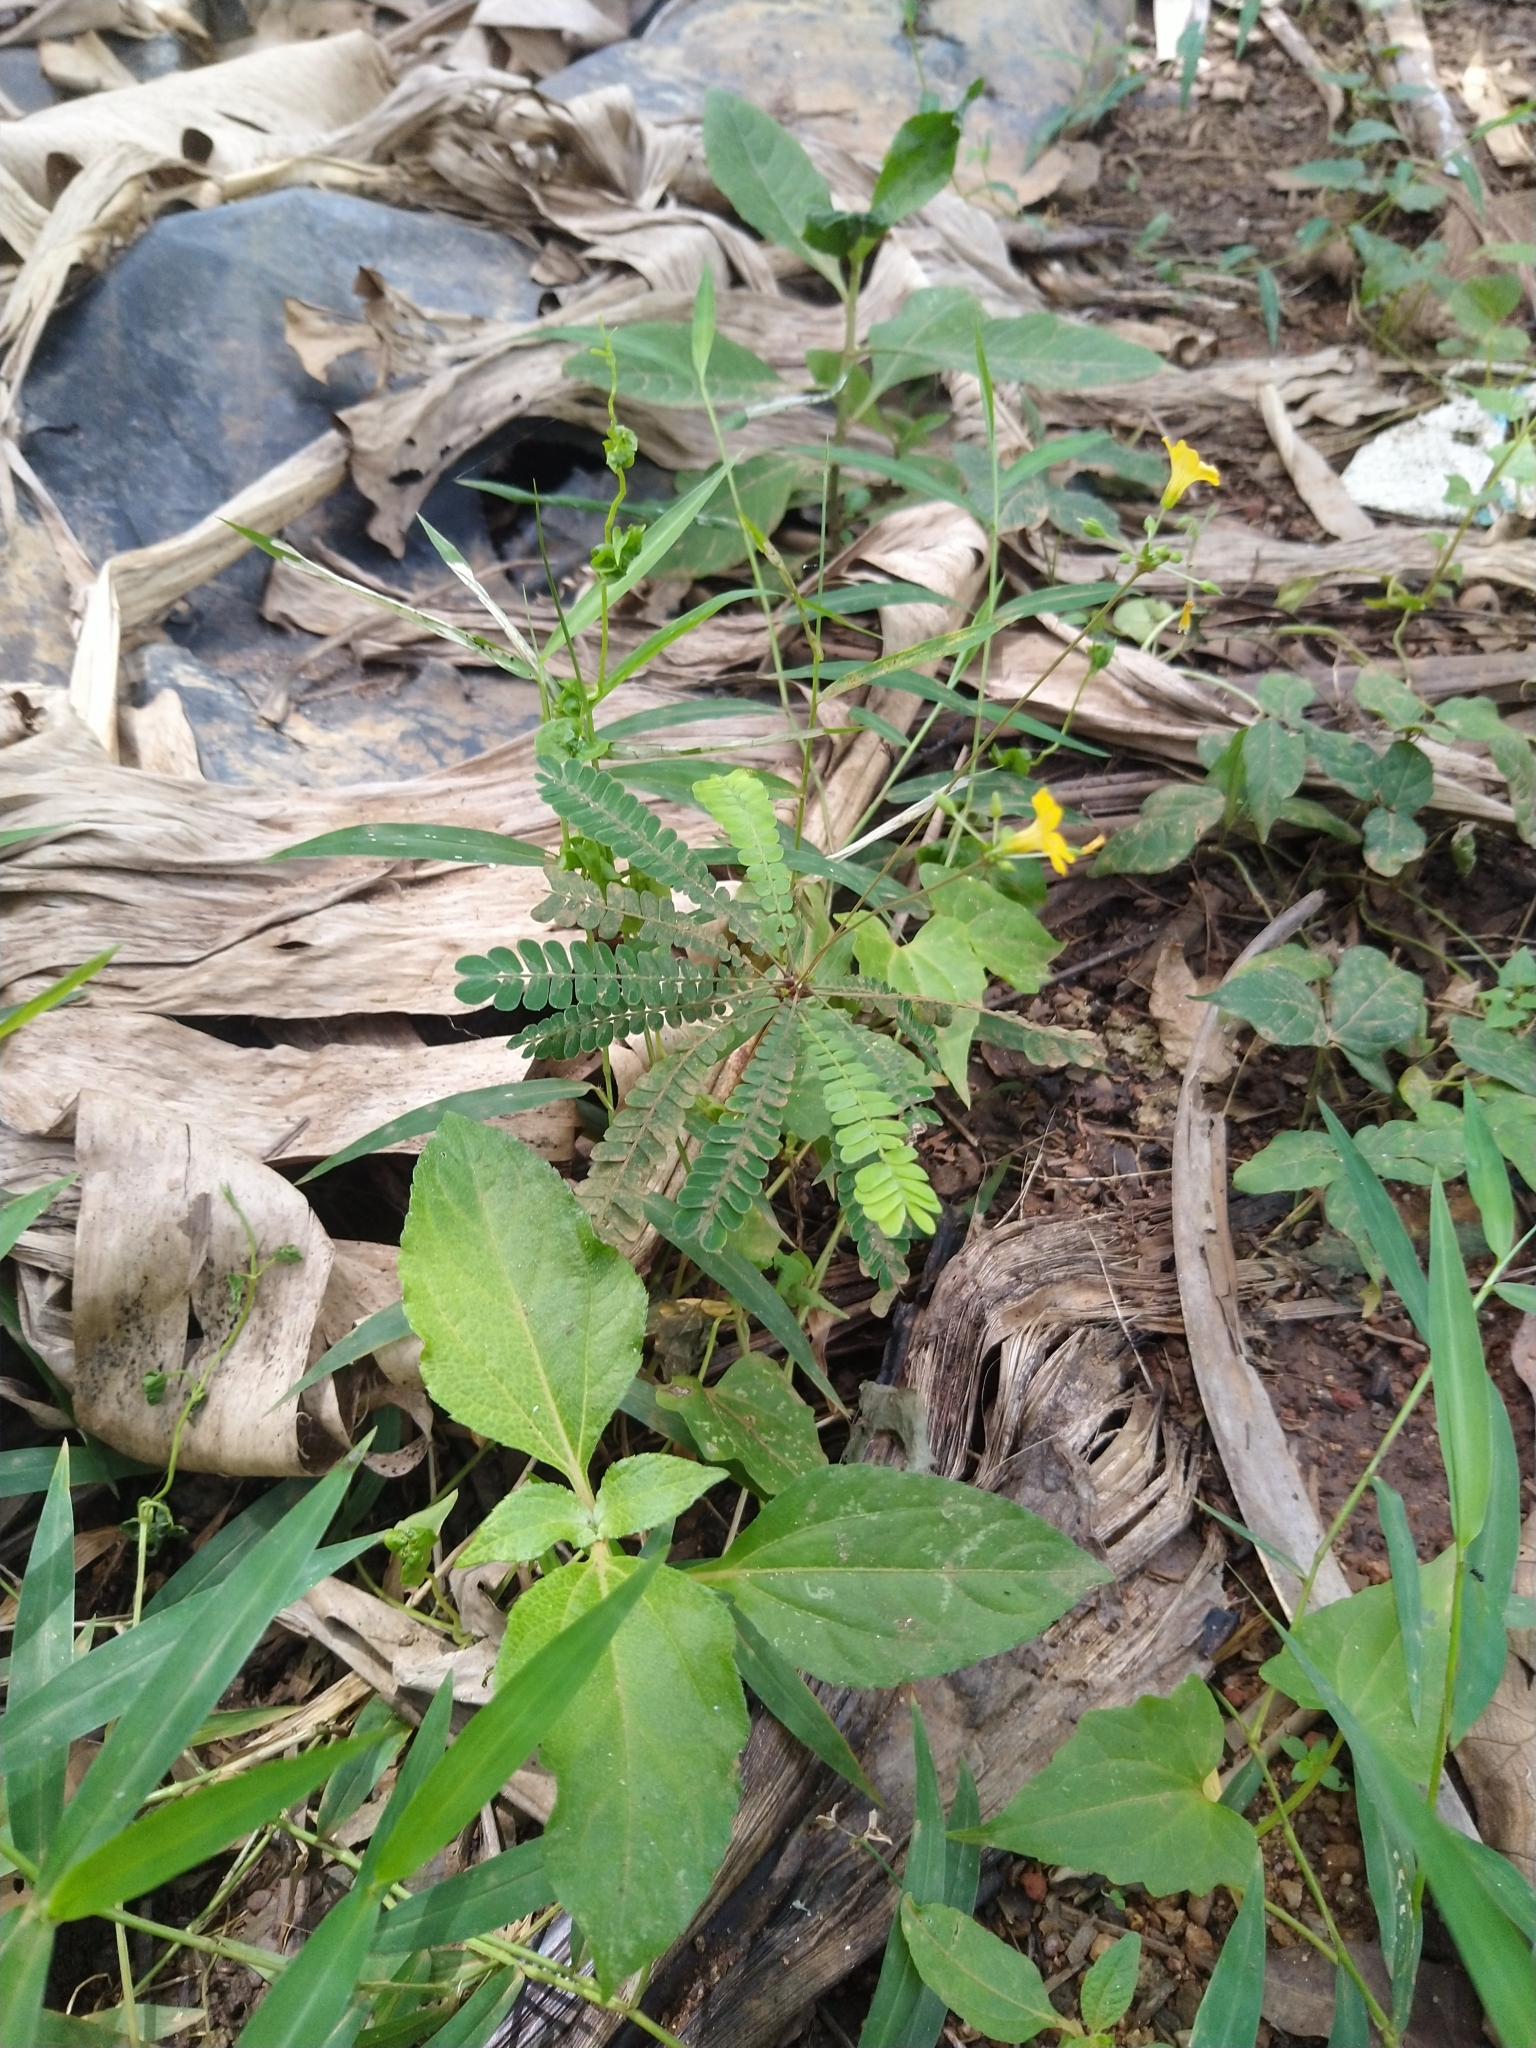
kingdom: Plantae
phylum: Tracheophyta
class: Magnoliopsida
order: Oxalidales
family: Oxalidaceae
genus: Biophytum
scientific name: Biophytum sensitivum
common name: Lifeplant
